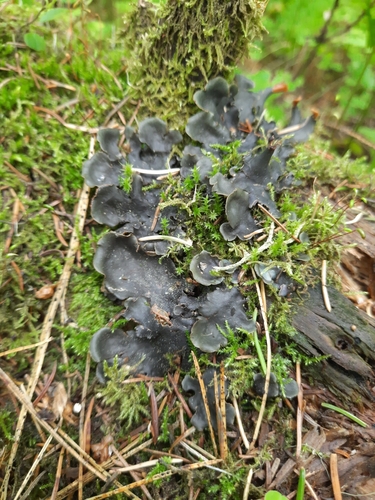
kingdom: Fungi
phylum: Ascomycota
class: Lecanoromycetes
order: Peltigerales
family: Peltigeraceae
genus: Peltigera
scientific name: Peltigera polydactylon
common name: Many-fruited pelt lichen
